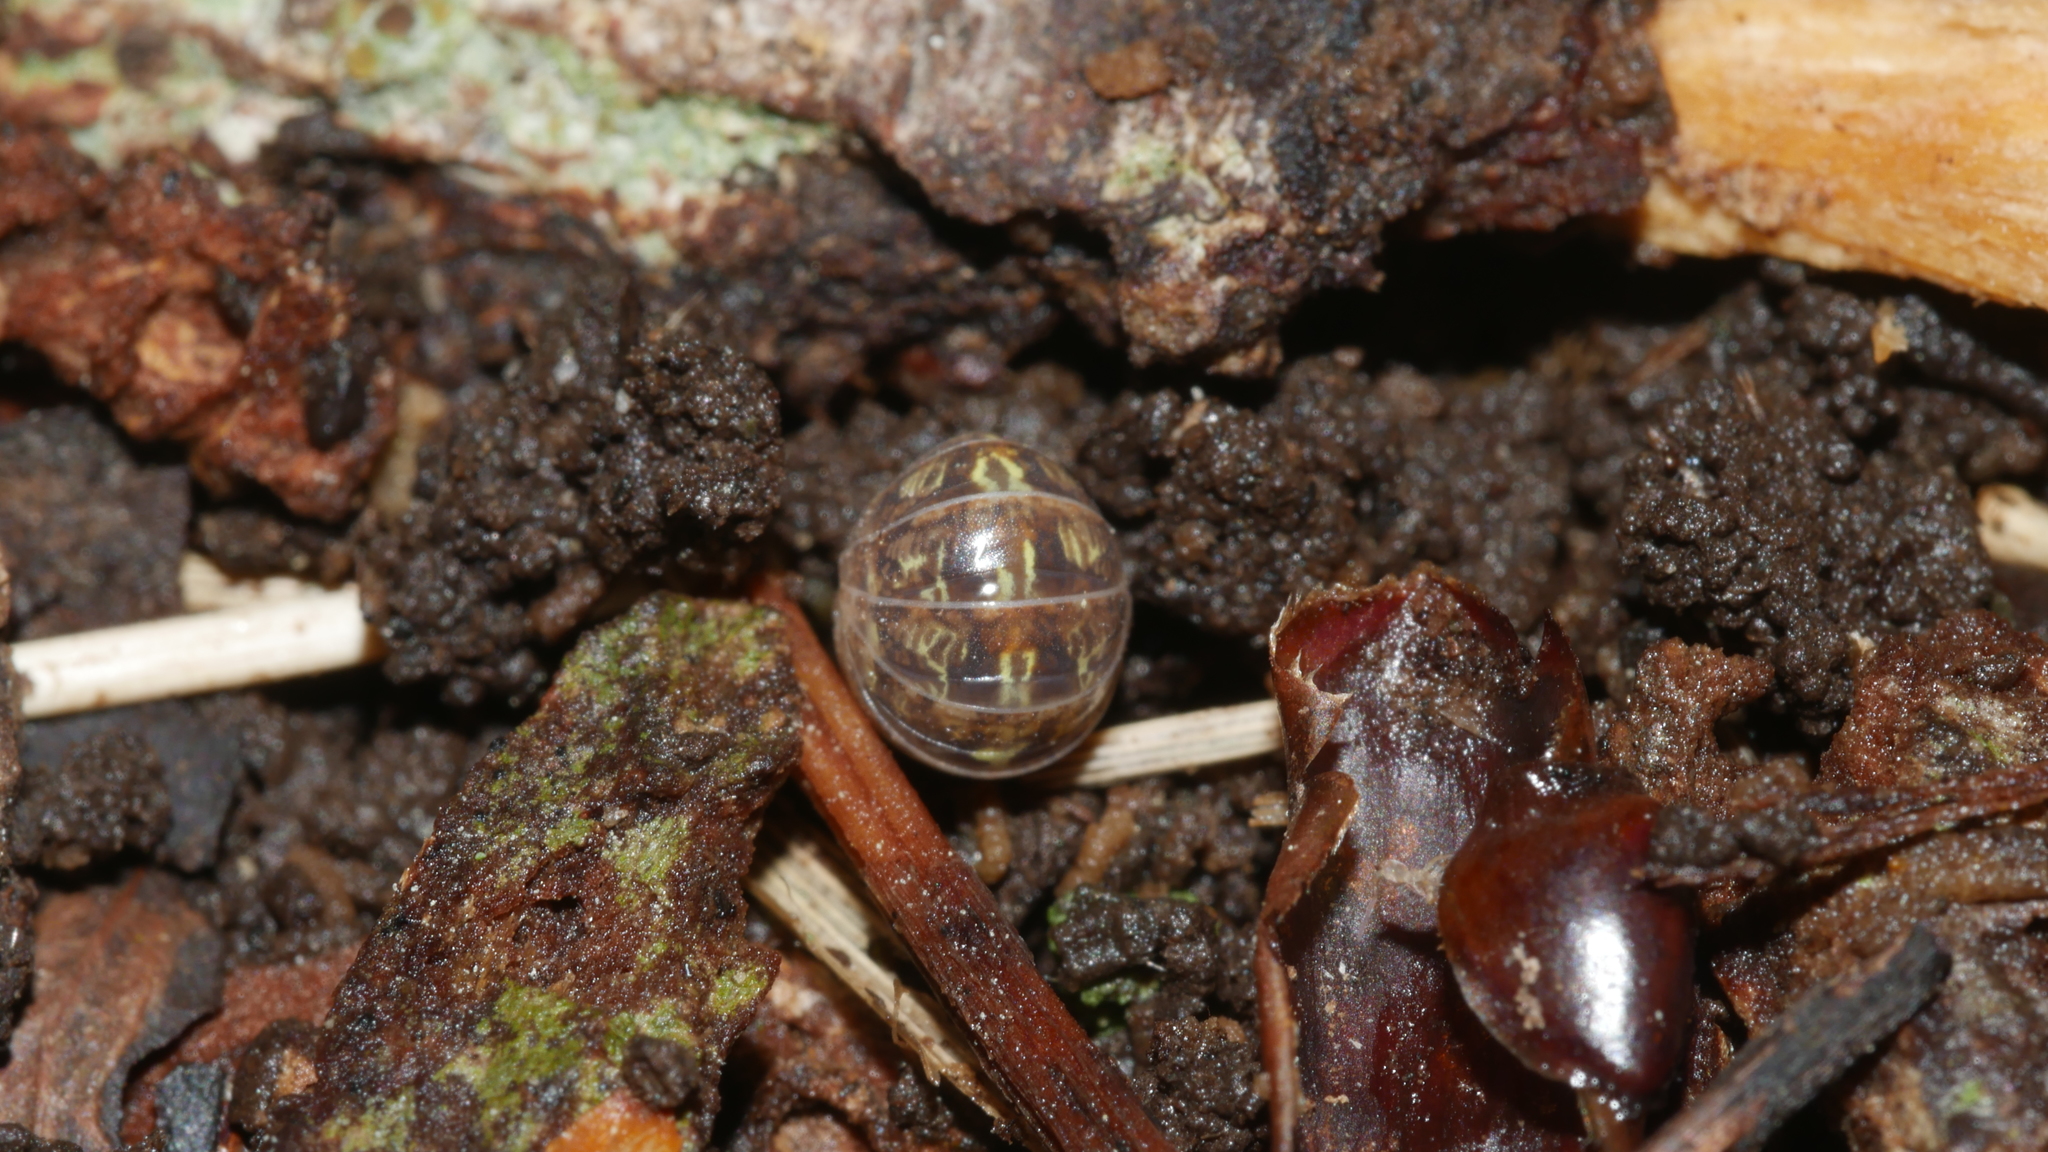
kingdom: Animalia
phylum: Arthropoda
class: Malacostraca
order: Isopoda
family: Armadillidiidae
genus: Armadillidium
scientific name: Armadillidium vulgare
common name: Common pill woodlouse
